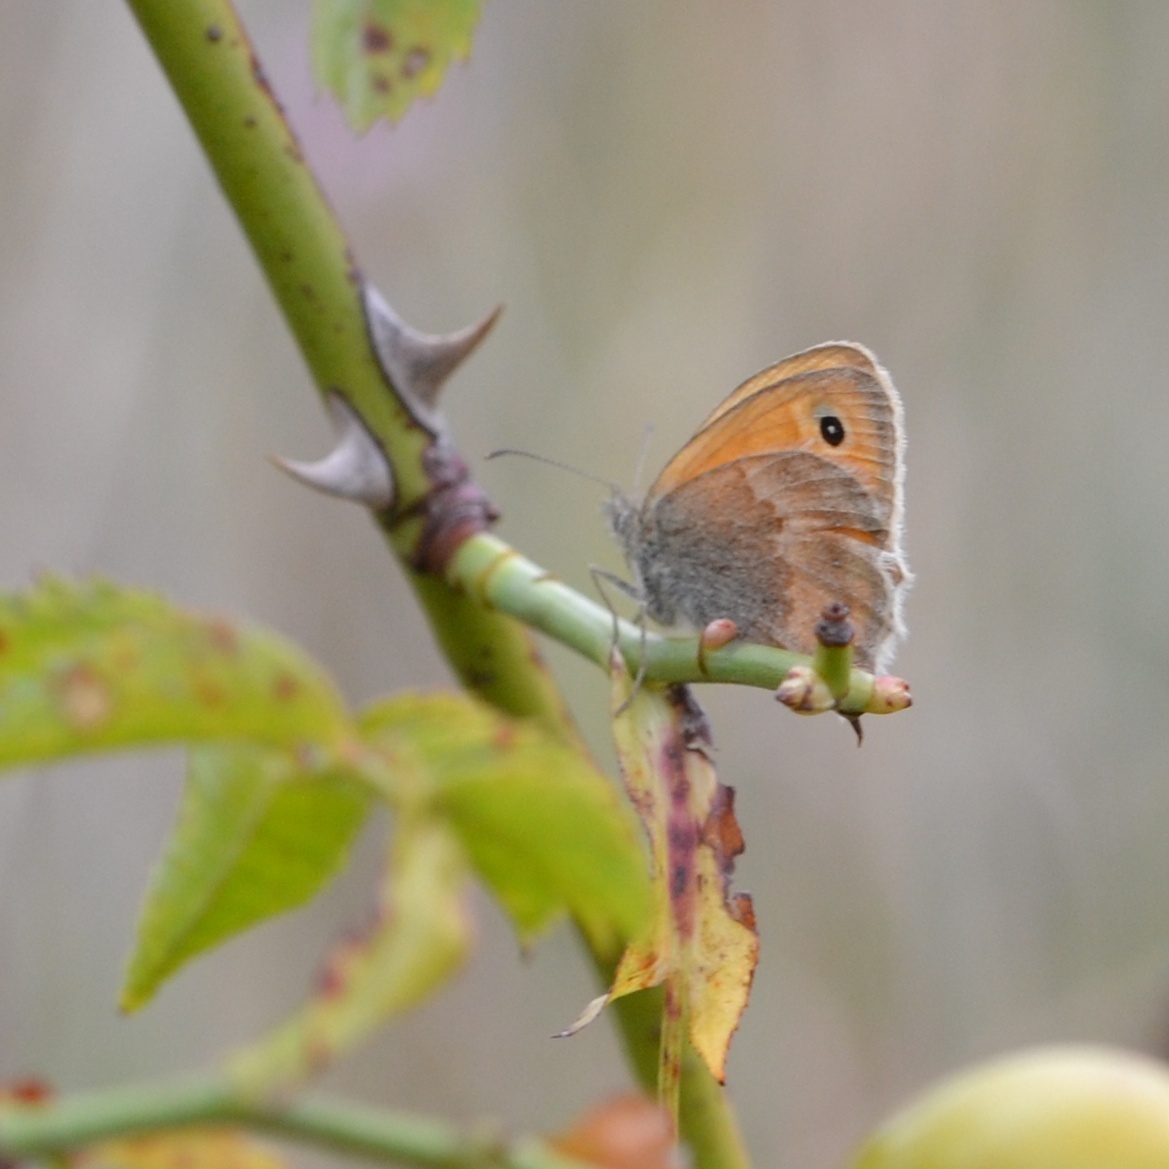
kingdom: Animalia
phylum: Arthropoda
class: Insecta
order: Lepidoptera
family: Nymphalidae
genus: Coenonympha
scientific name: Coenonympha pamphilus
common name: Small heath
